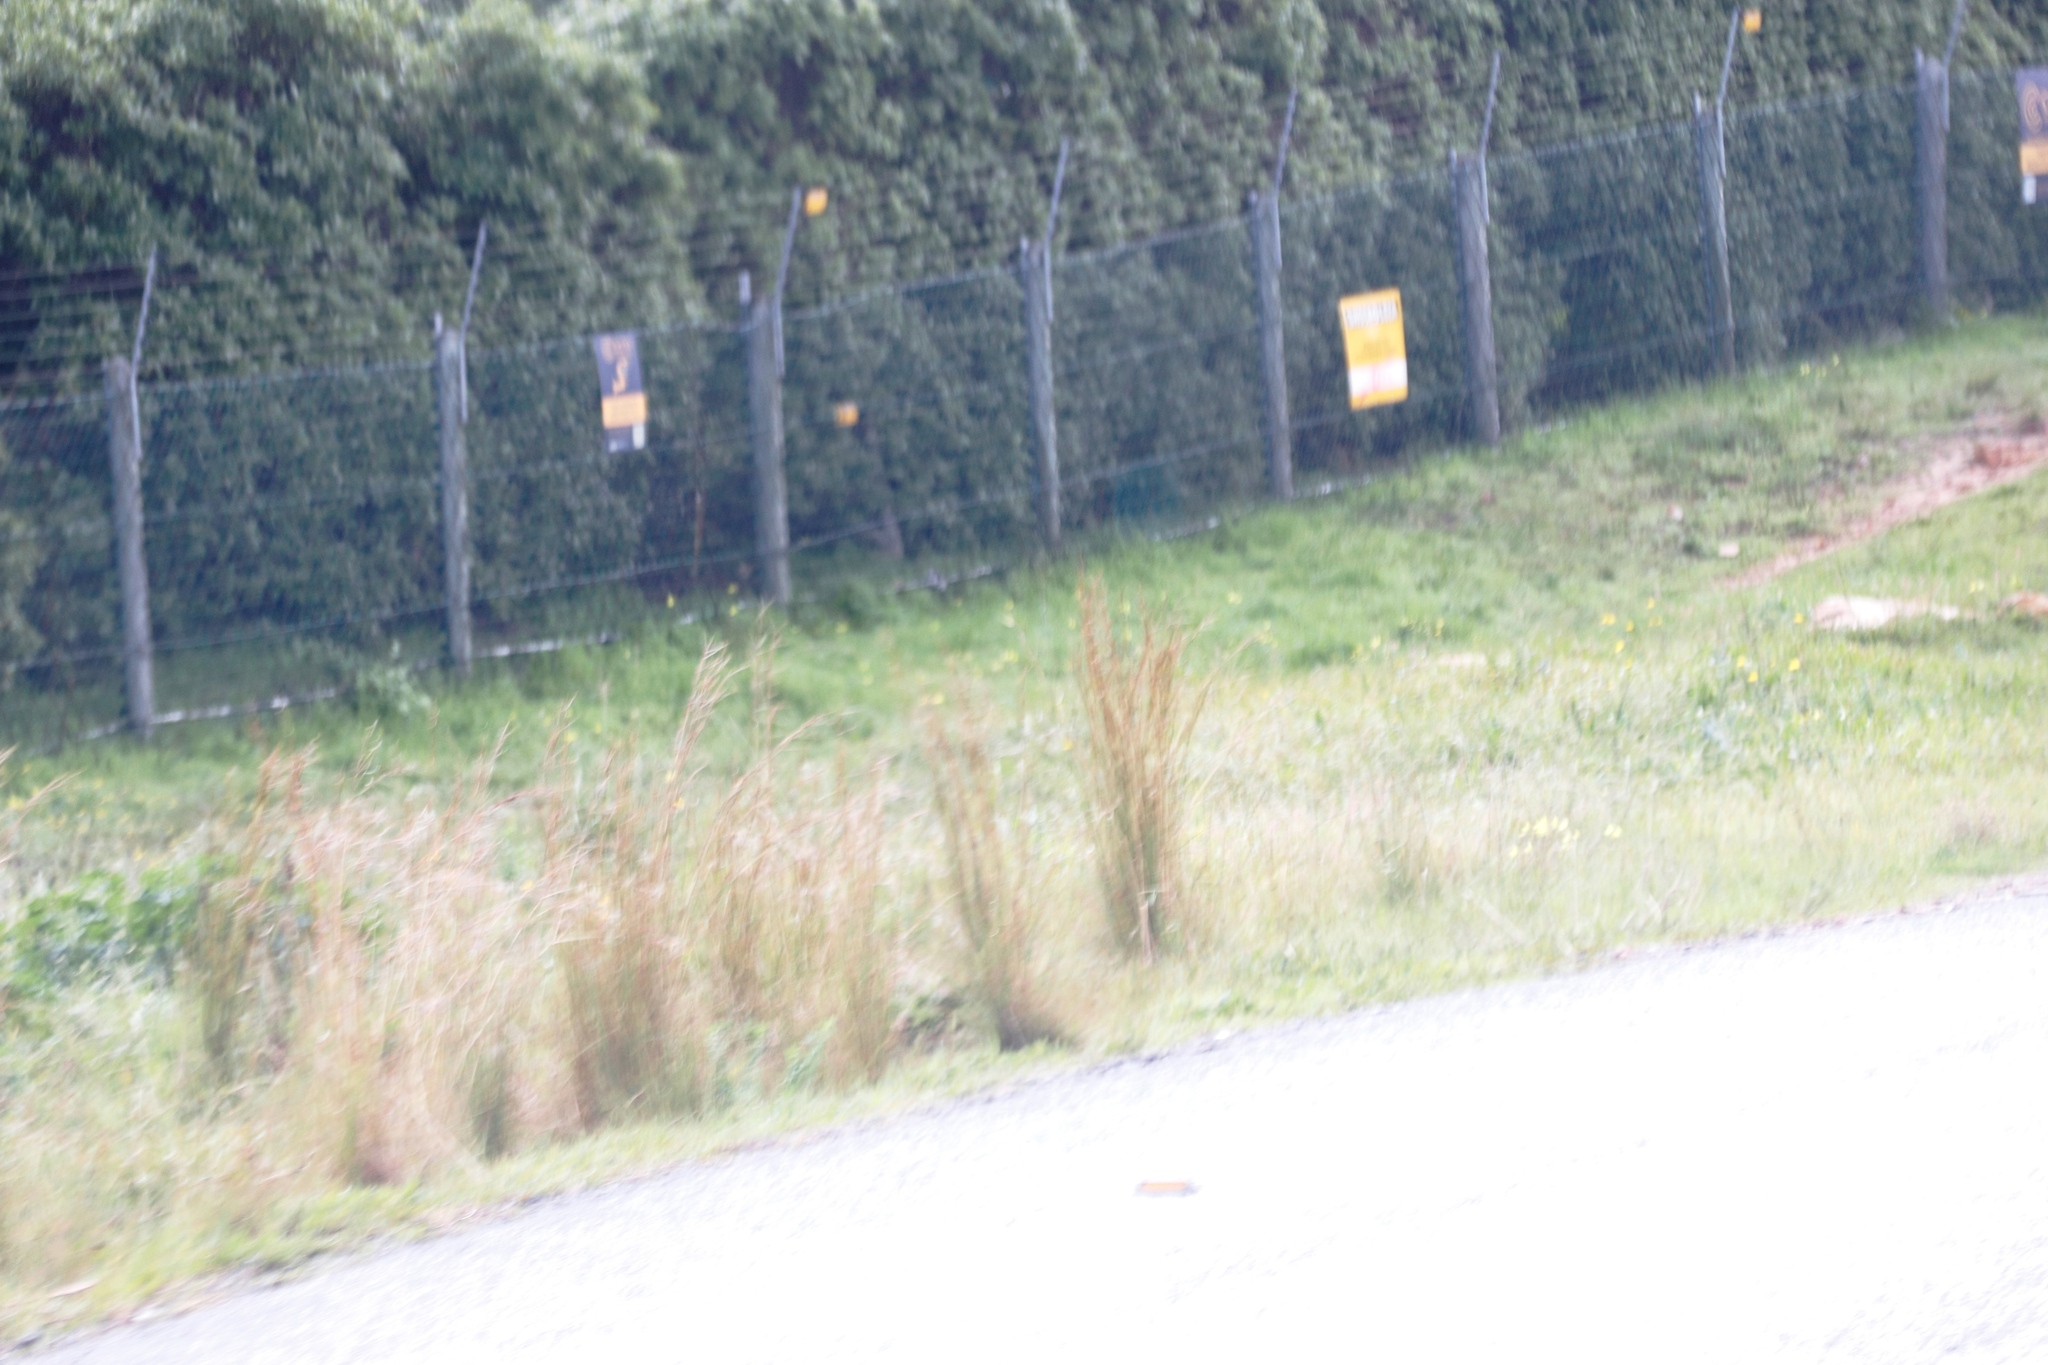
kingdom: Plantae
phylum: Tracheophyta
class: Liliopsida
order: Poales
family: Poaceae
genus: Hyparrhenia
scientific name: Hyparrhenia hirta
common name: Thatching grass
